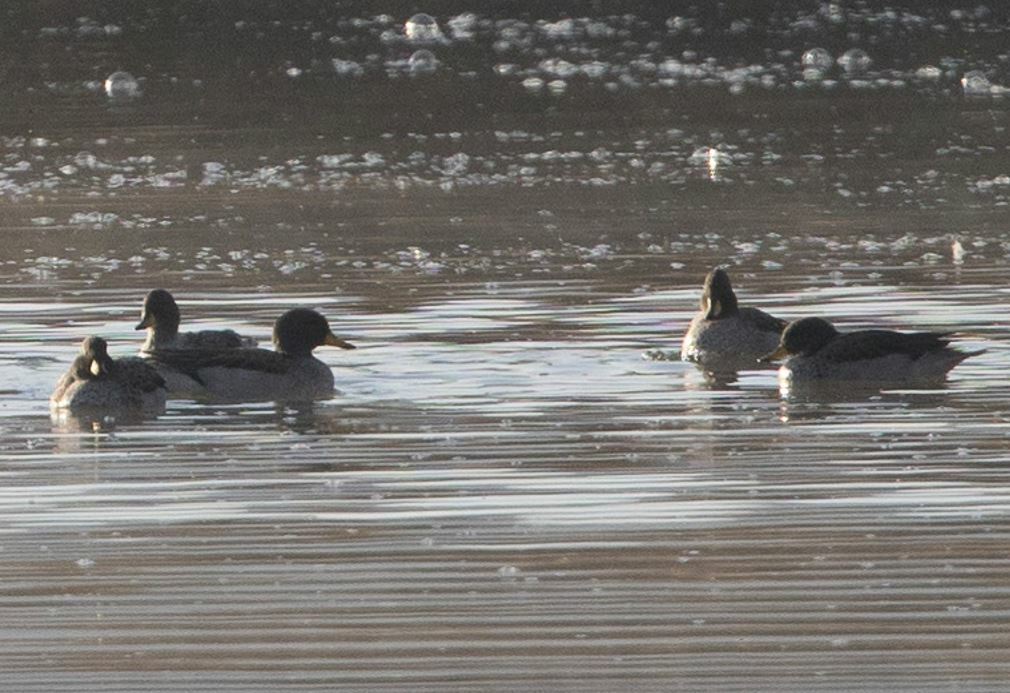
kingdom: Animalia
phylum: Chordata
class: Aves
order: Anseriformes
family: Anatidae
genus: Anas
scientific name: Anas flavirostris
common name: Yellow-billed teal
